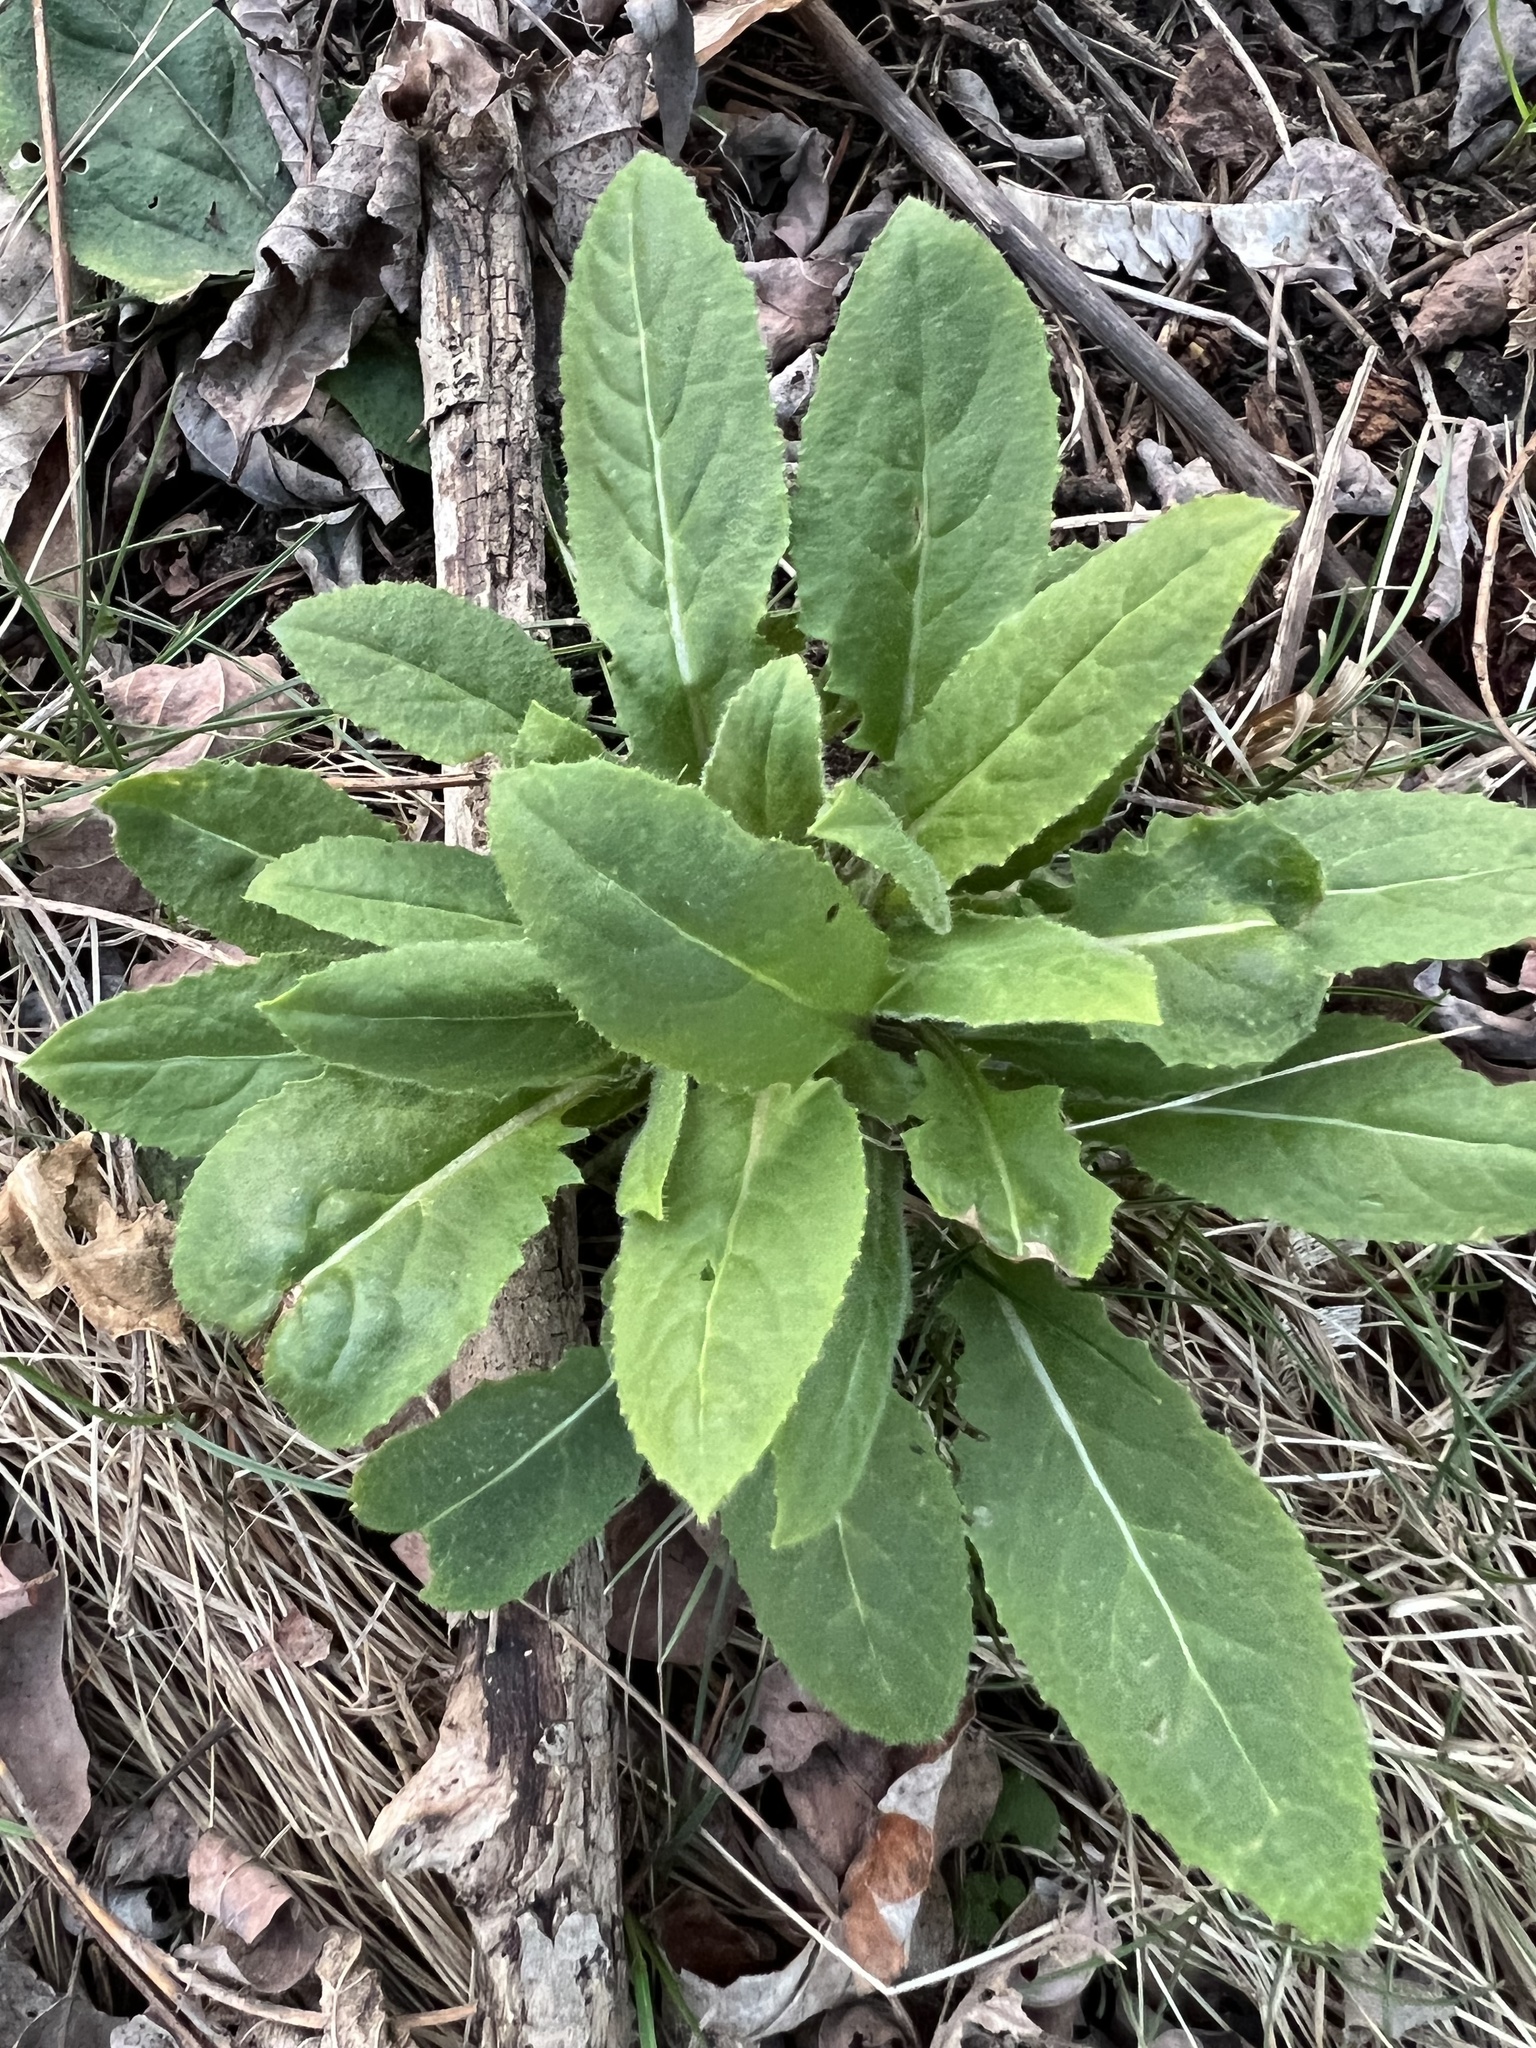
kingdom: Plantae
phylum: Tracheophyta
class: Magnoliopsida
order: Brassicales
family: Brassicaceae
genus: Hesperis
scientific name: Hesperis matronalis
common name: Dame's-violet
